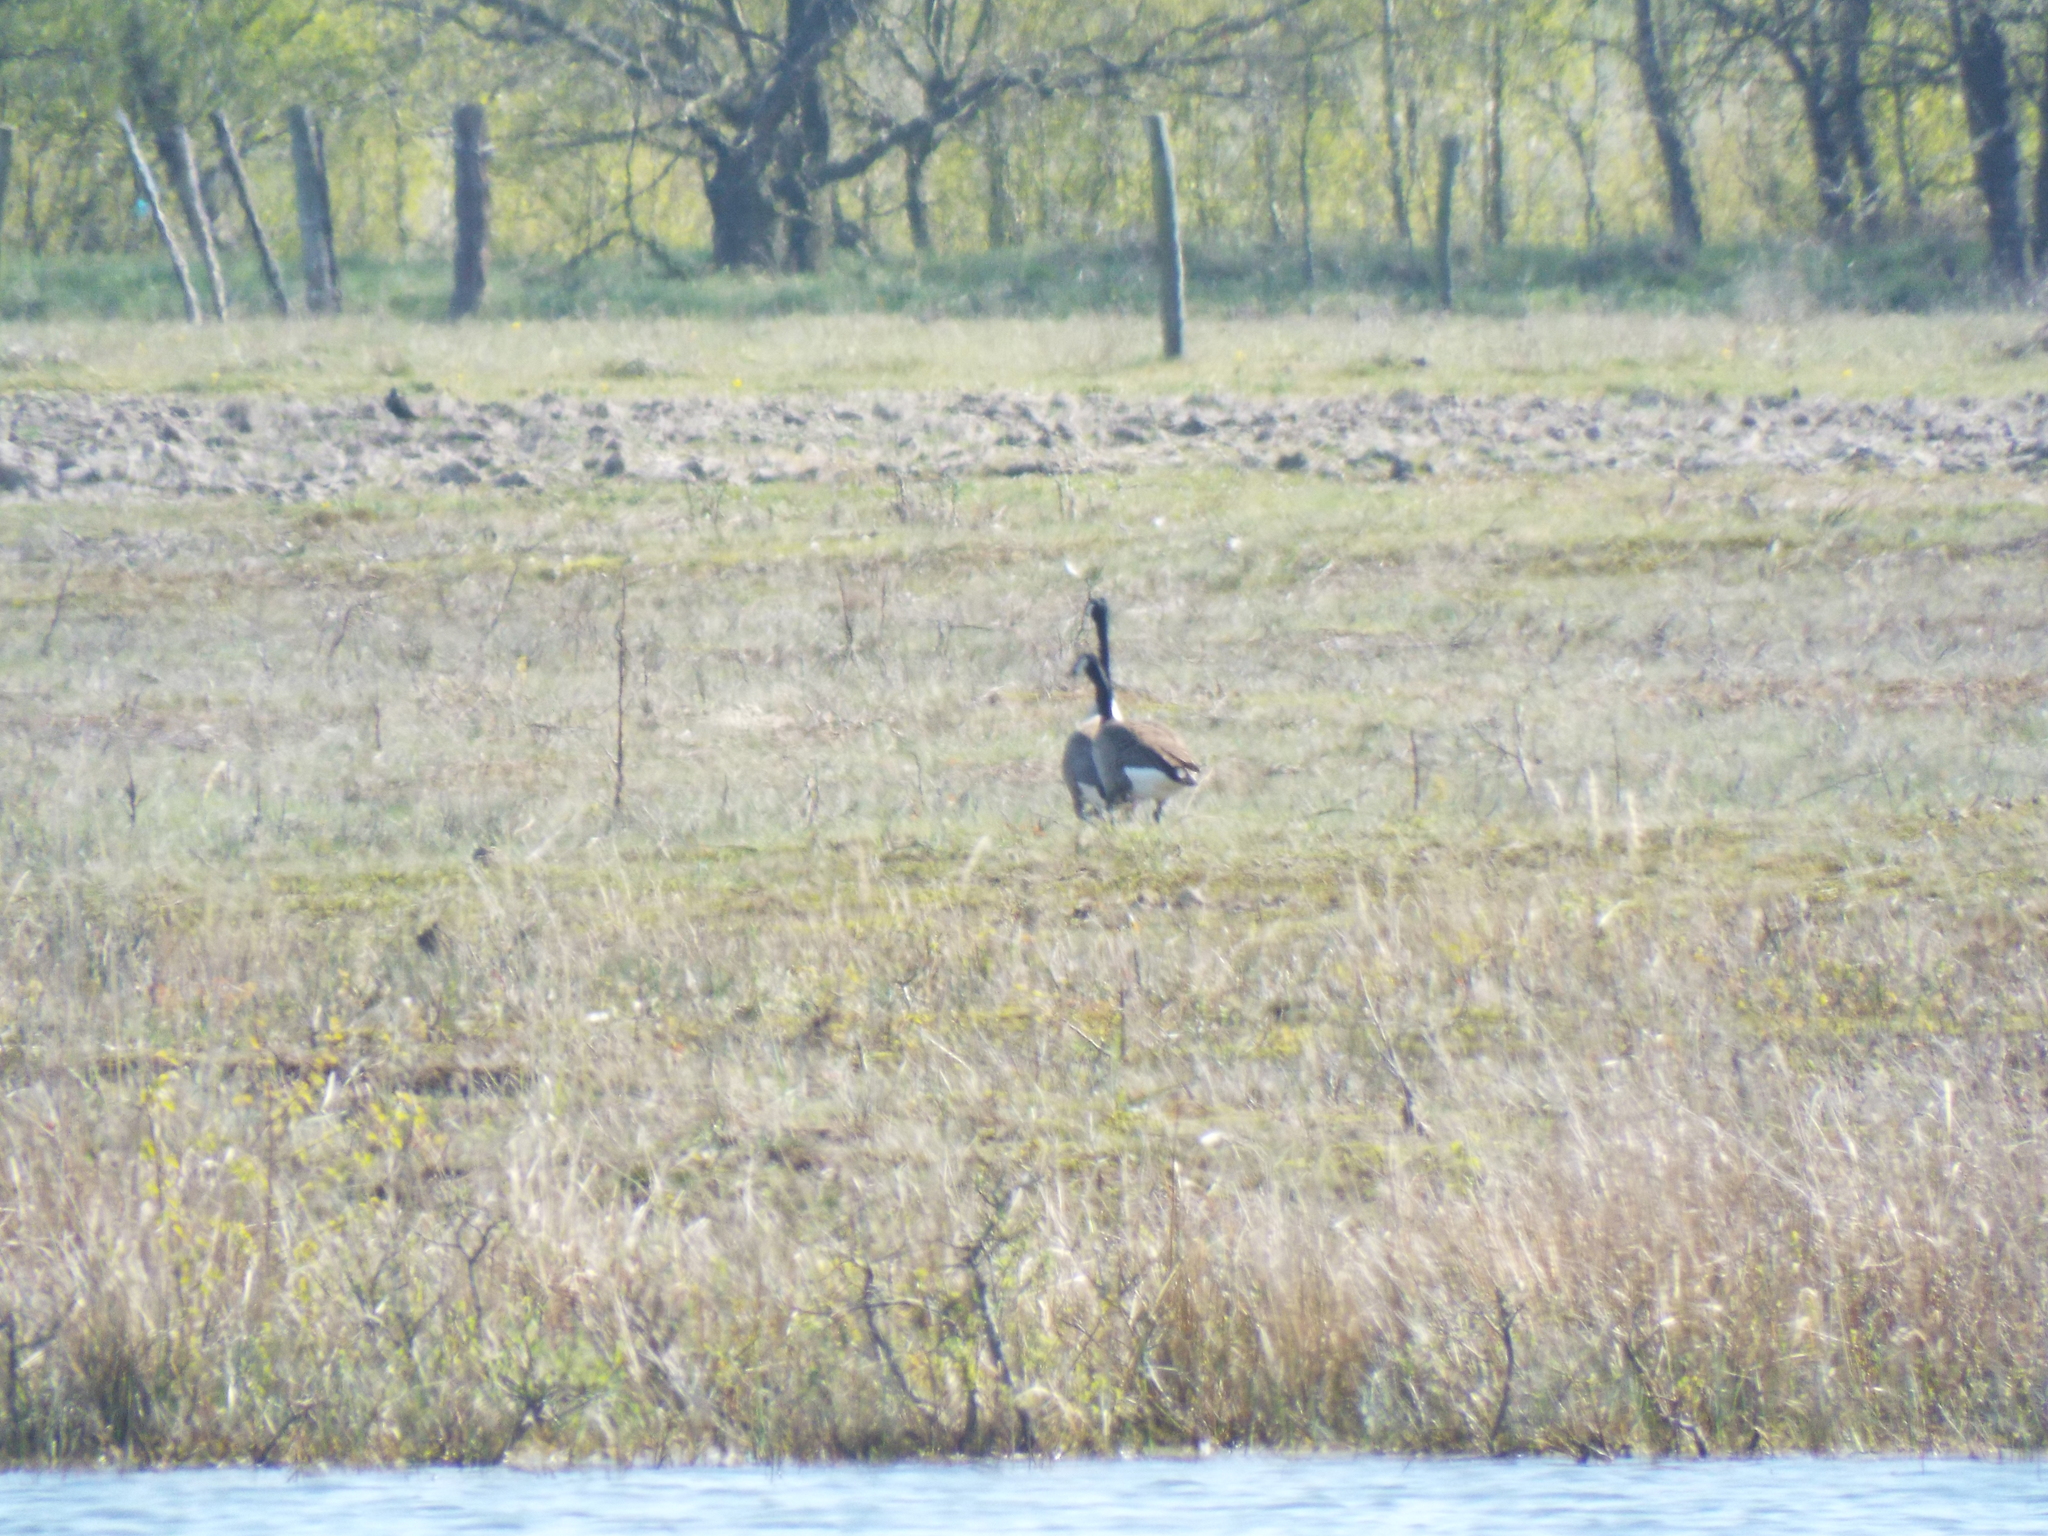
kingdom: Animalia
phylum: Chordata
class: Aves
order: Anseriformes
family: Anatidae
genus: Branta
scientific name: Branta canadensis
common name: Canada goose
